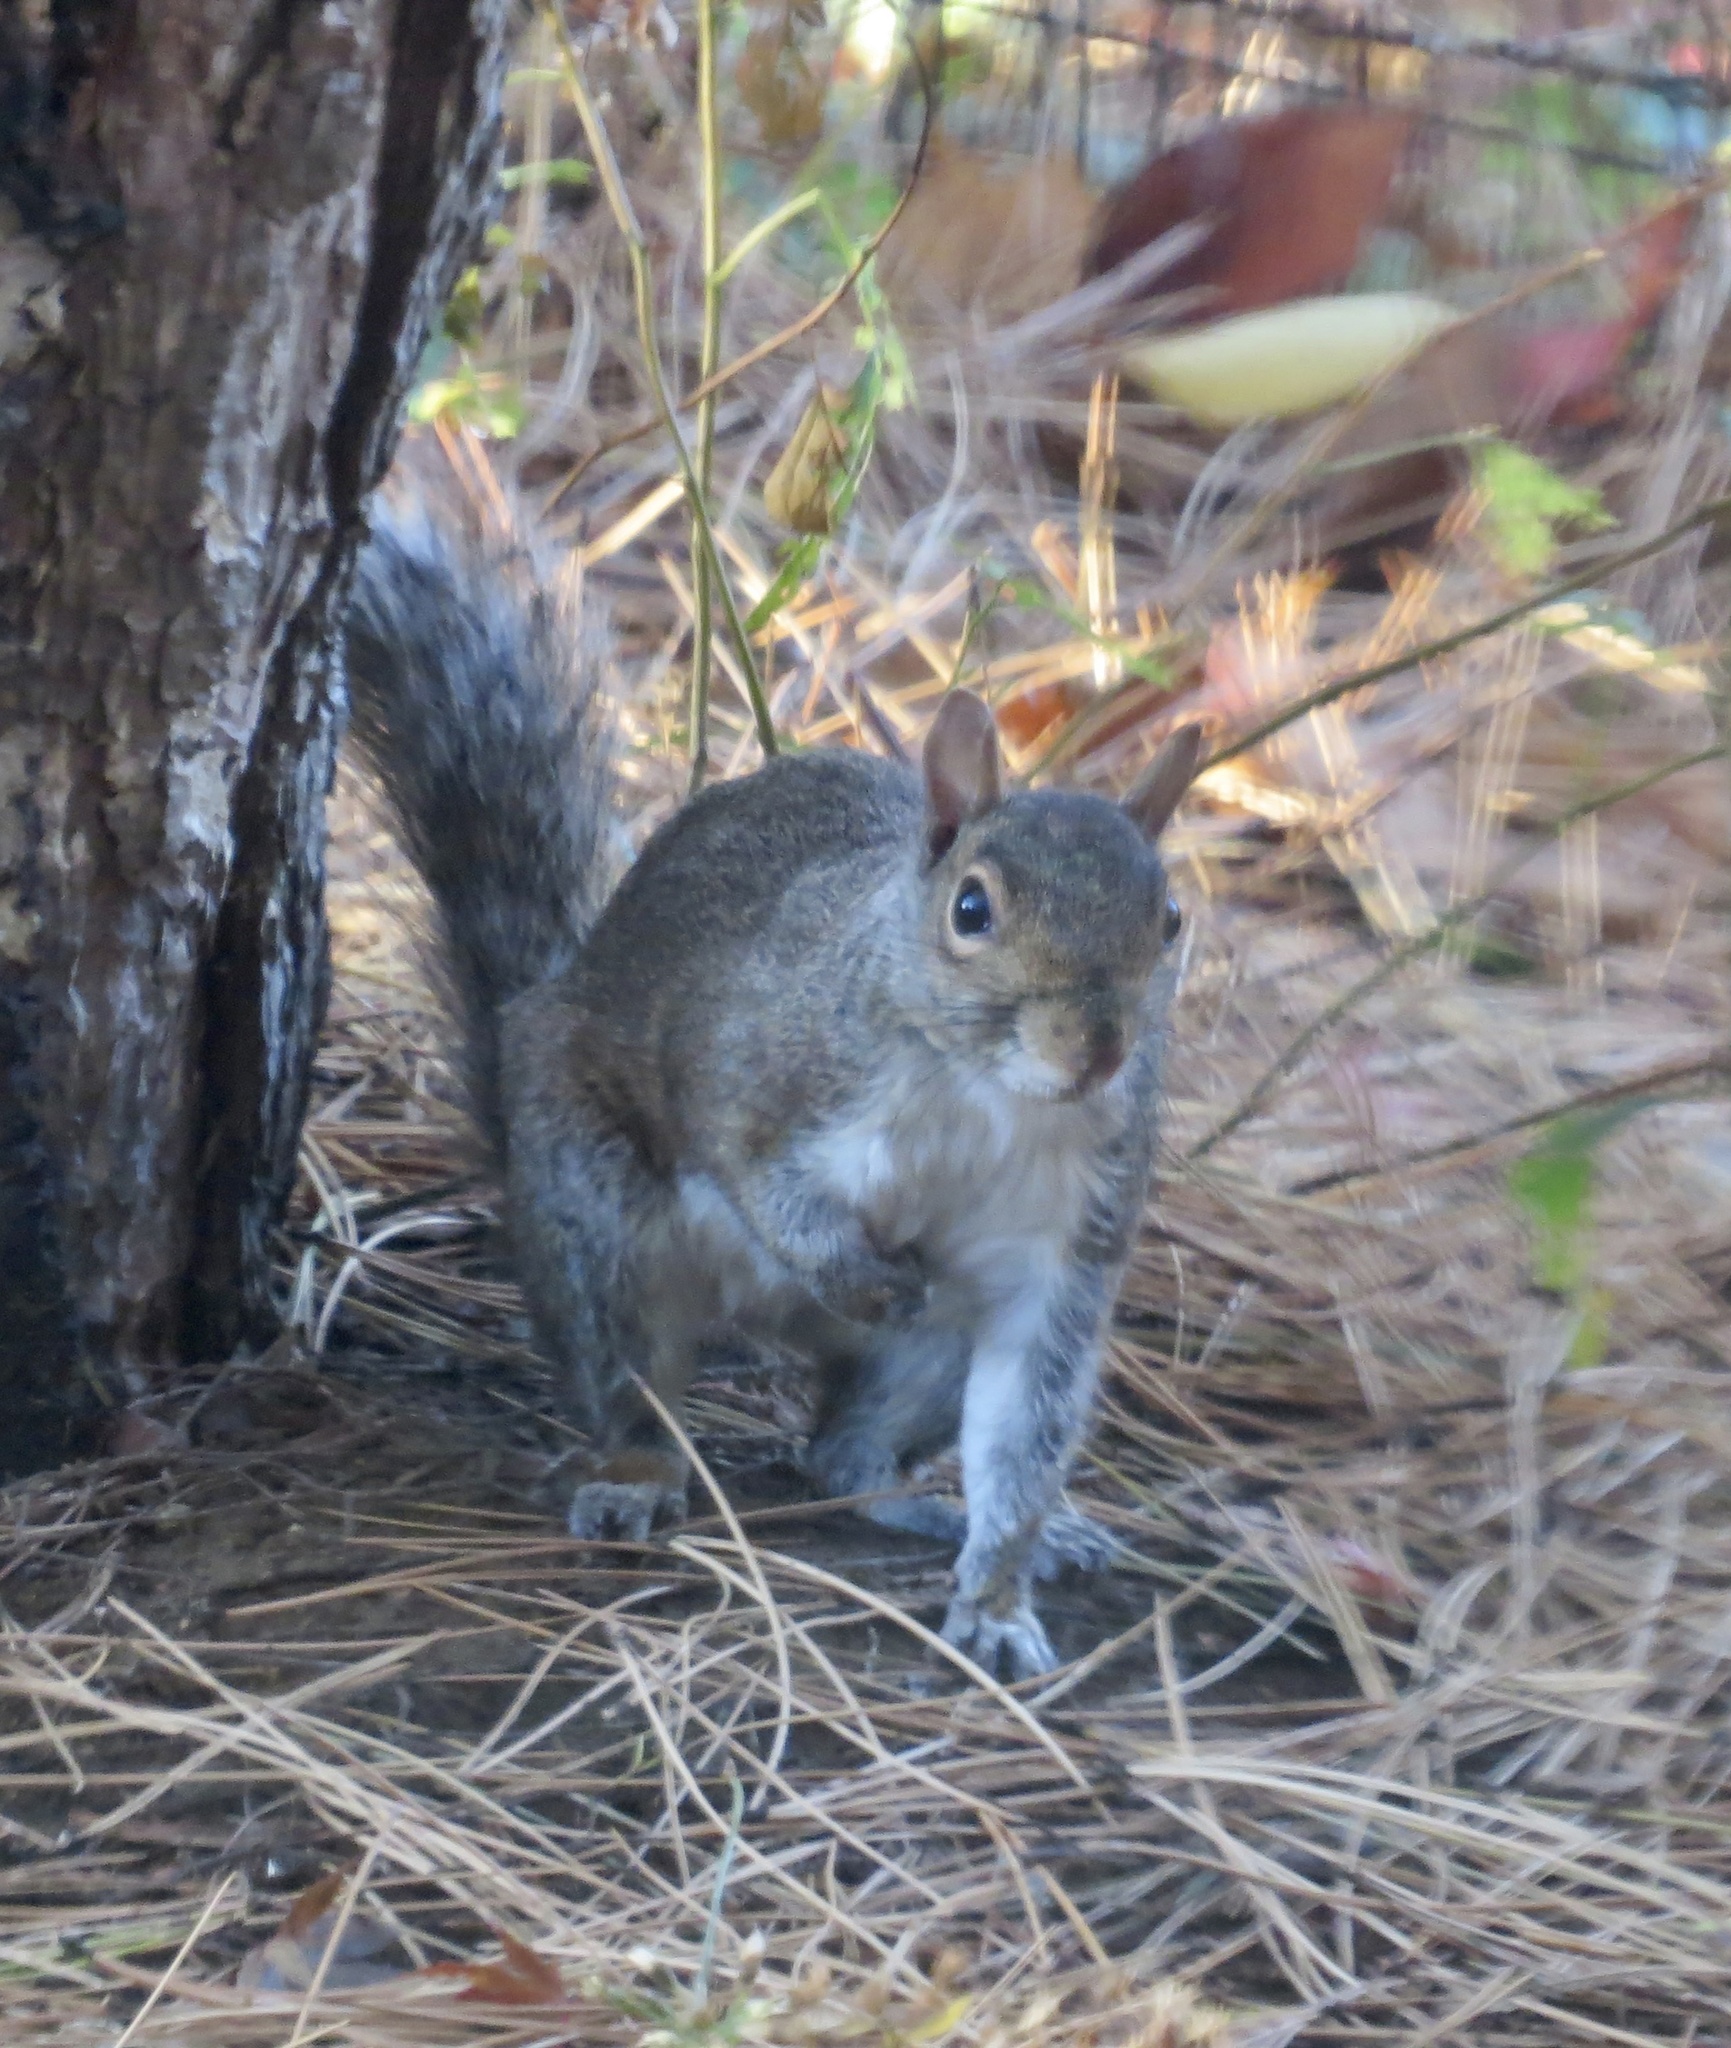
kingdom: Animalia
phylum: Chordata
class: Mammalia
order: Rodentia
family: Sciuridae
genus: Sciurus
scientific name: Sciurus carolinensis
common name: Eastern gray squirrel
